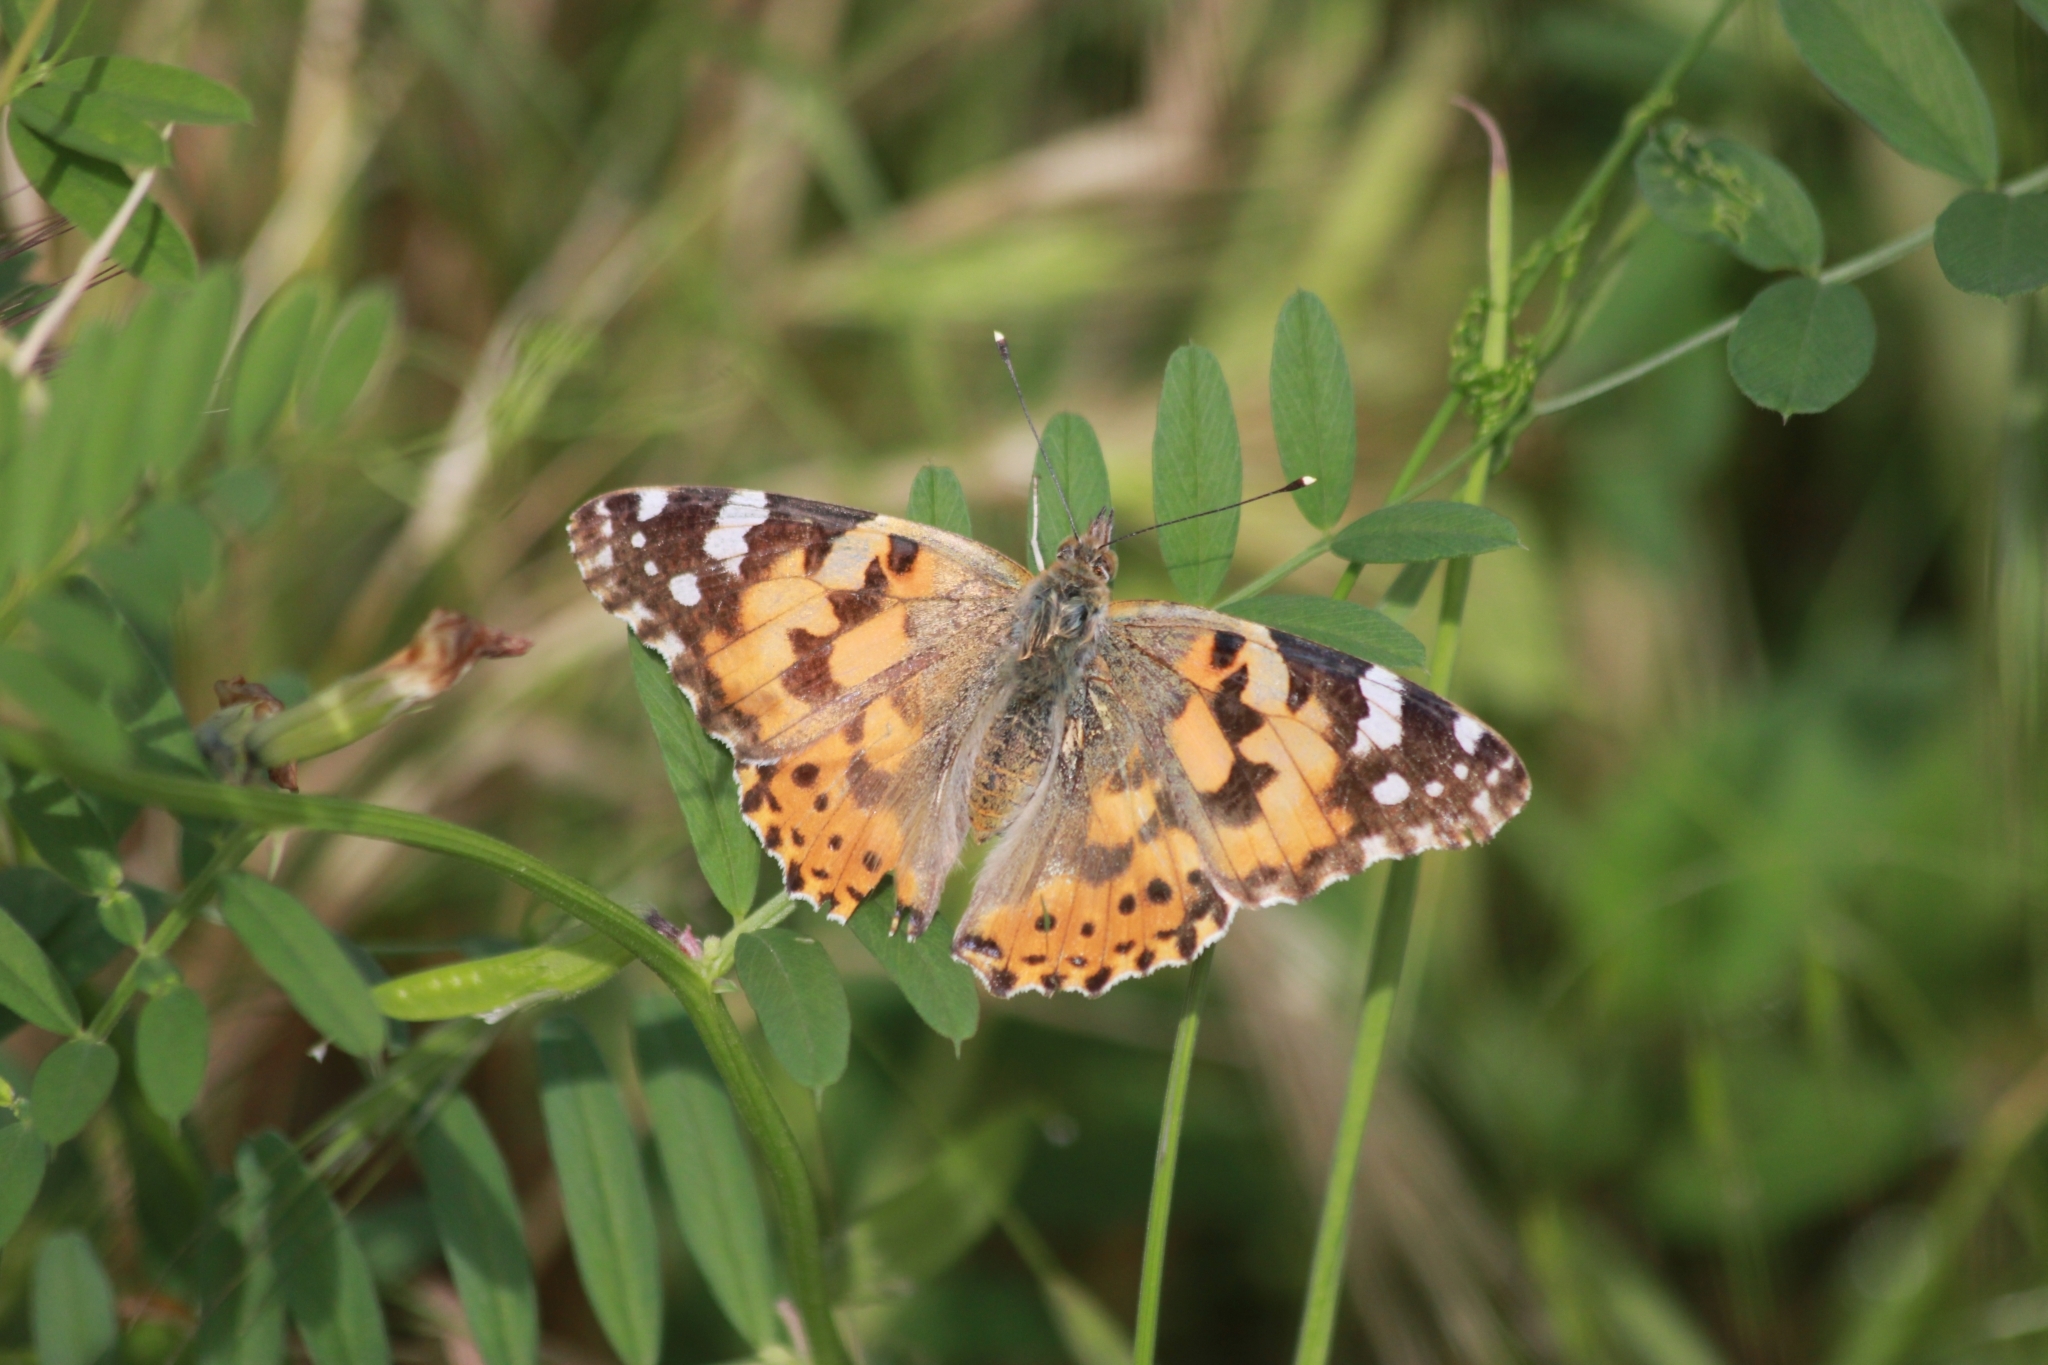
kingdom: Animalia
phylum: Arthropoda
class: Insecta
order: Lepidoptera
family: Nymphalidae
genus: Vanessa
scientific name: Vanessa cardui
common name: Painted lady
